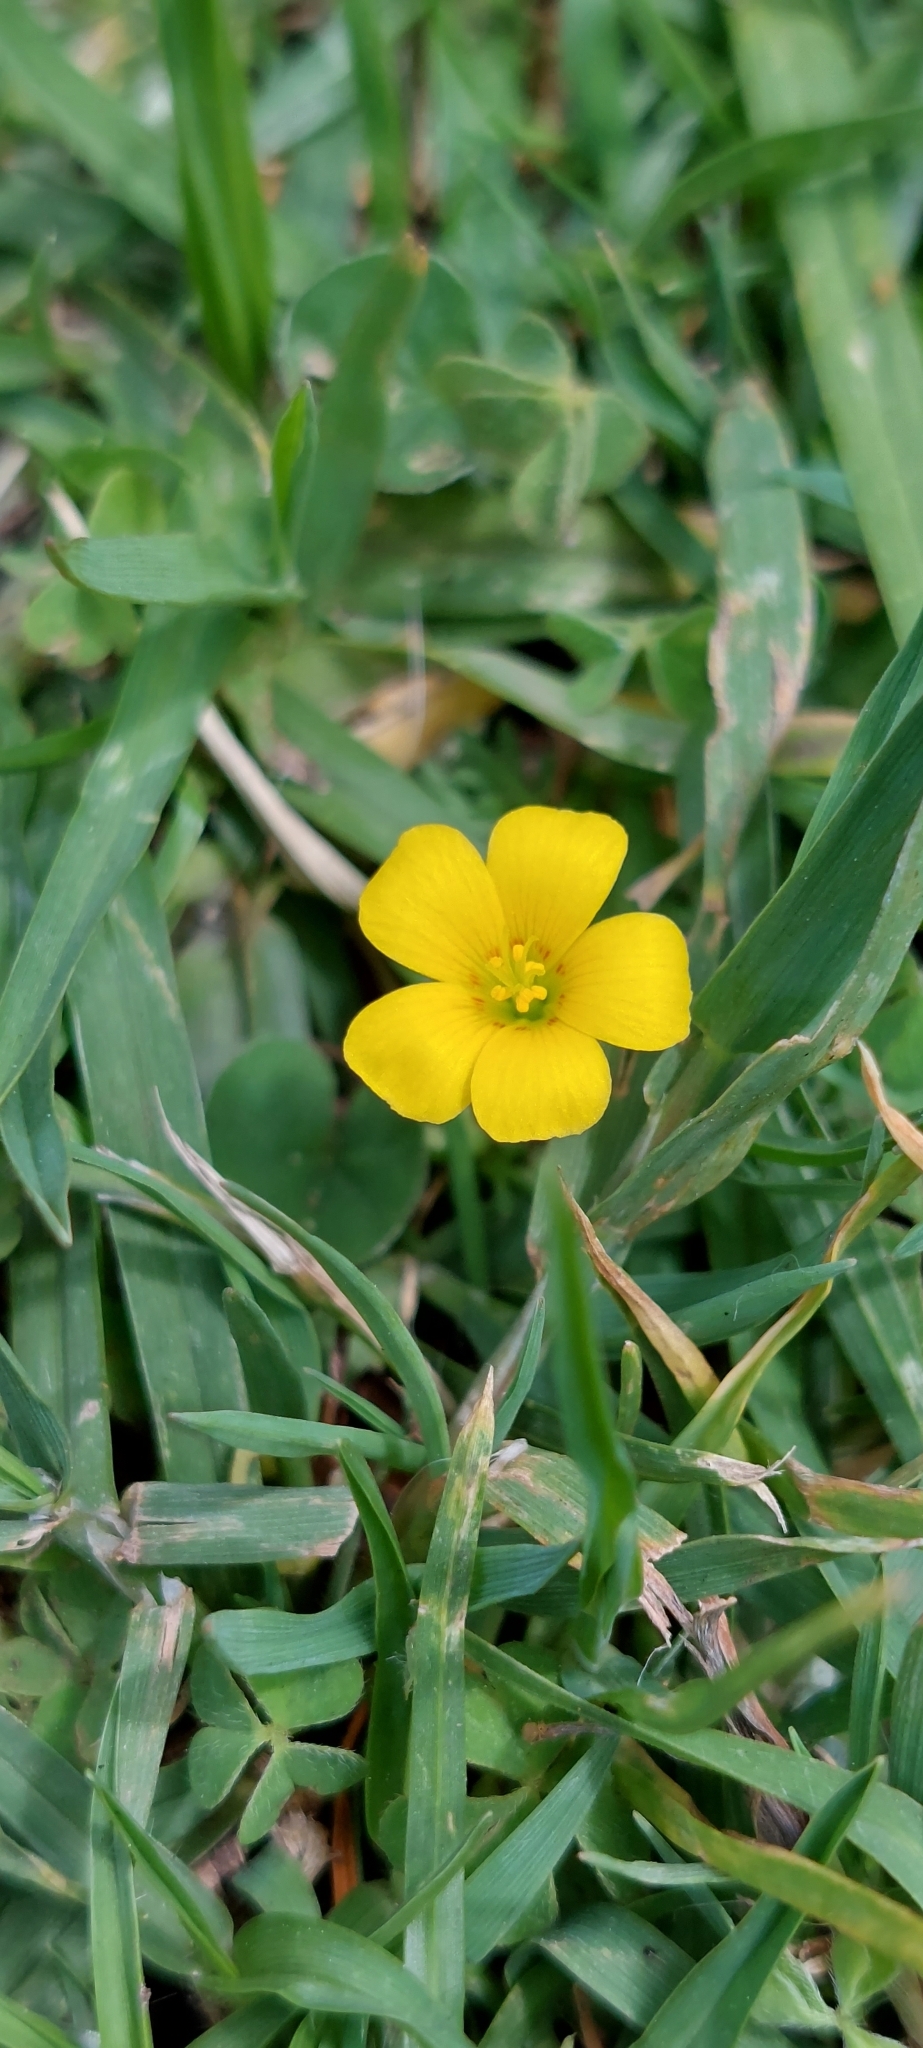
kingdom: Plantae
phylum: Tracheophyta
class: Magnoliopsida
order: Oxalidales
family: Oxalidaceae
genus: Oxalis
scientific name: Oxalis corniculata
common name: Procumbent yellow-sorrel
